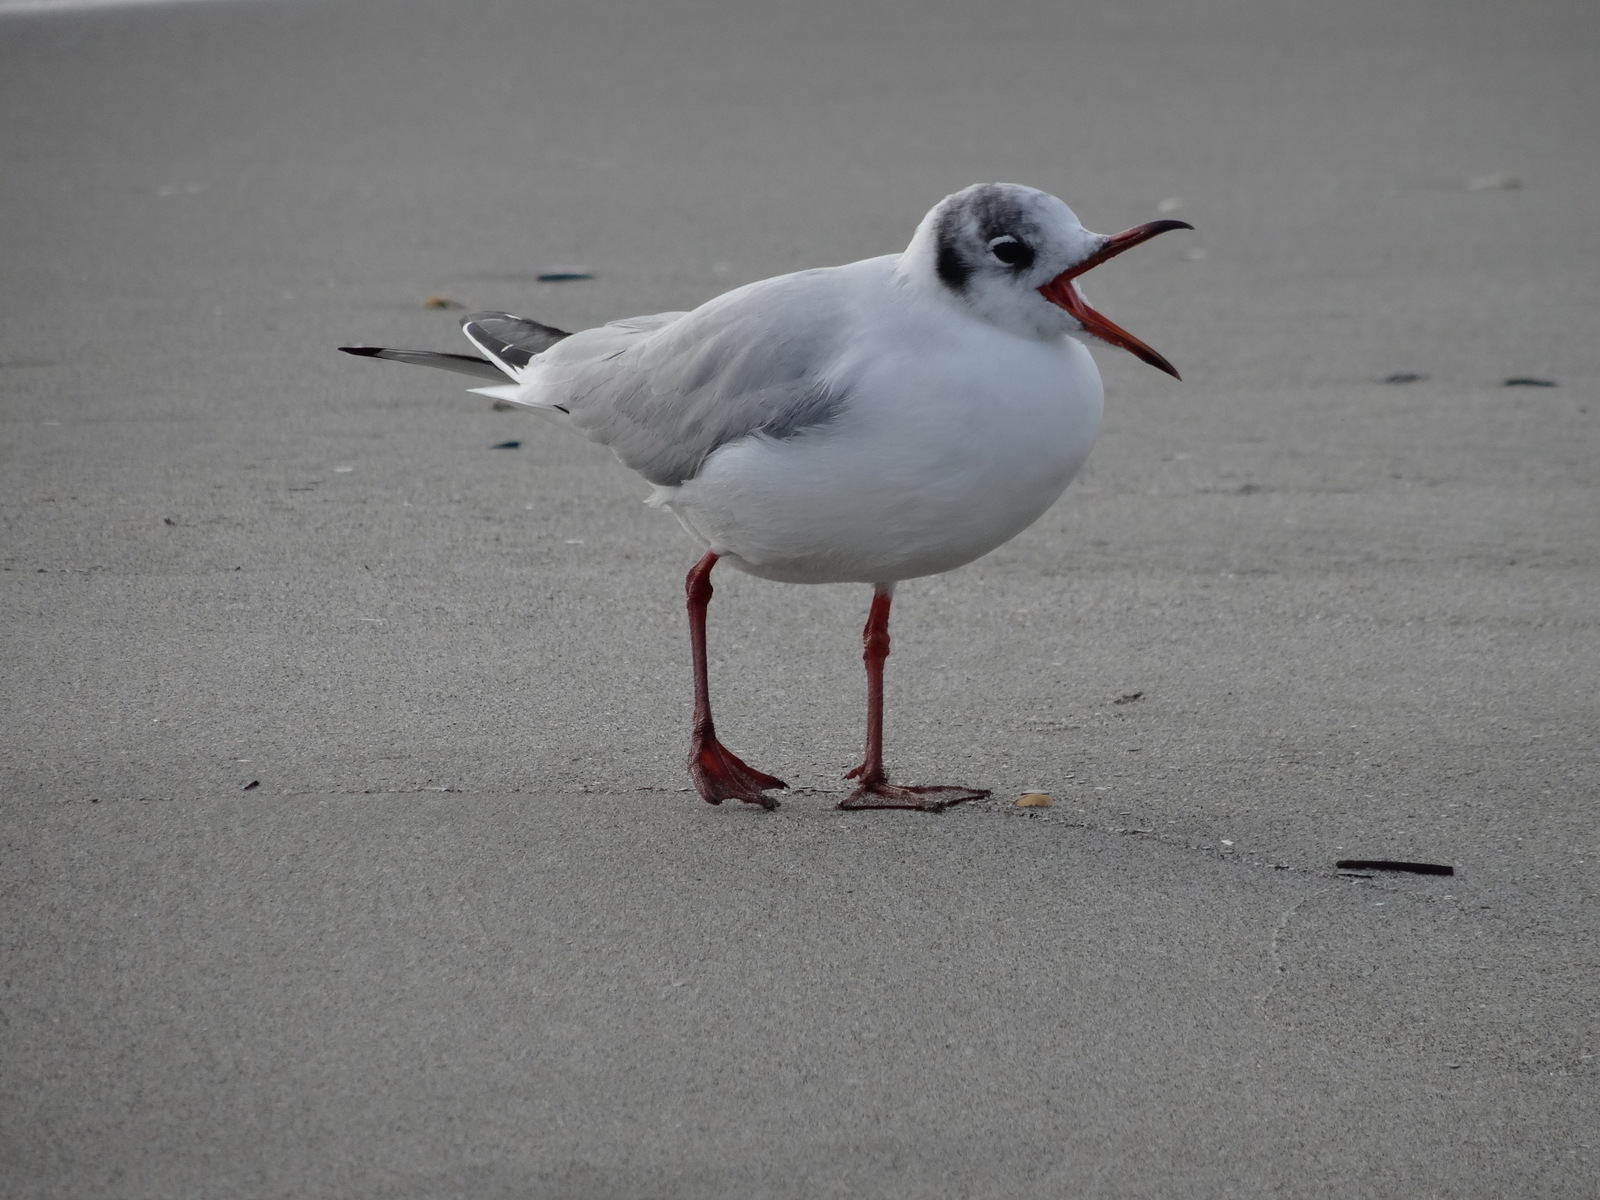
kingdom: Animalia
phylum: Chordata
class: Aves
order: Charadriiformes
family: Laridae
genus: Chroicocephalus
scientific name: Chroicocephalus ridibundus
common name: Black-headed gull
